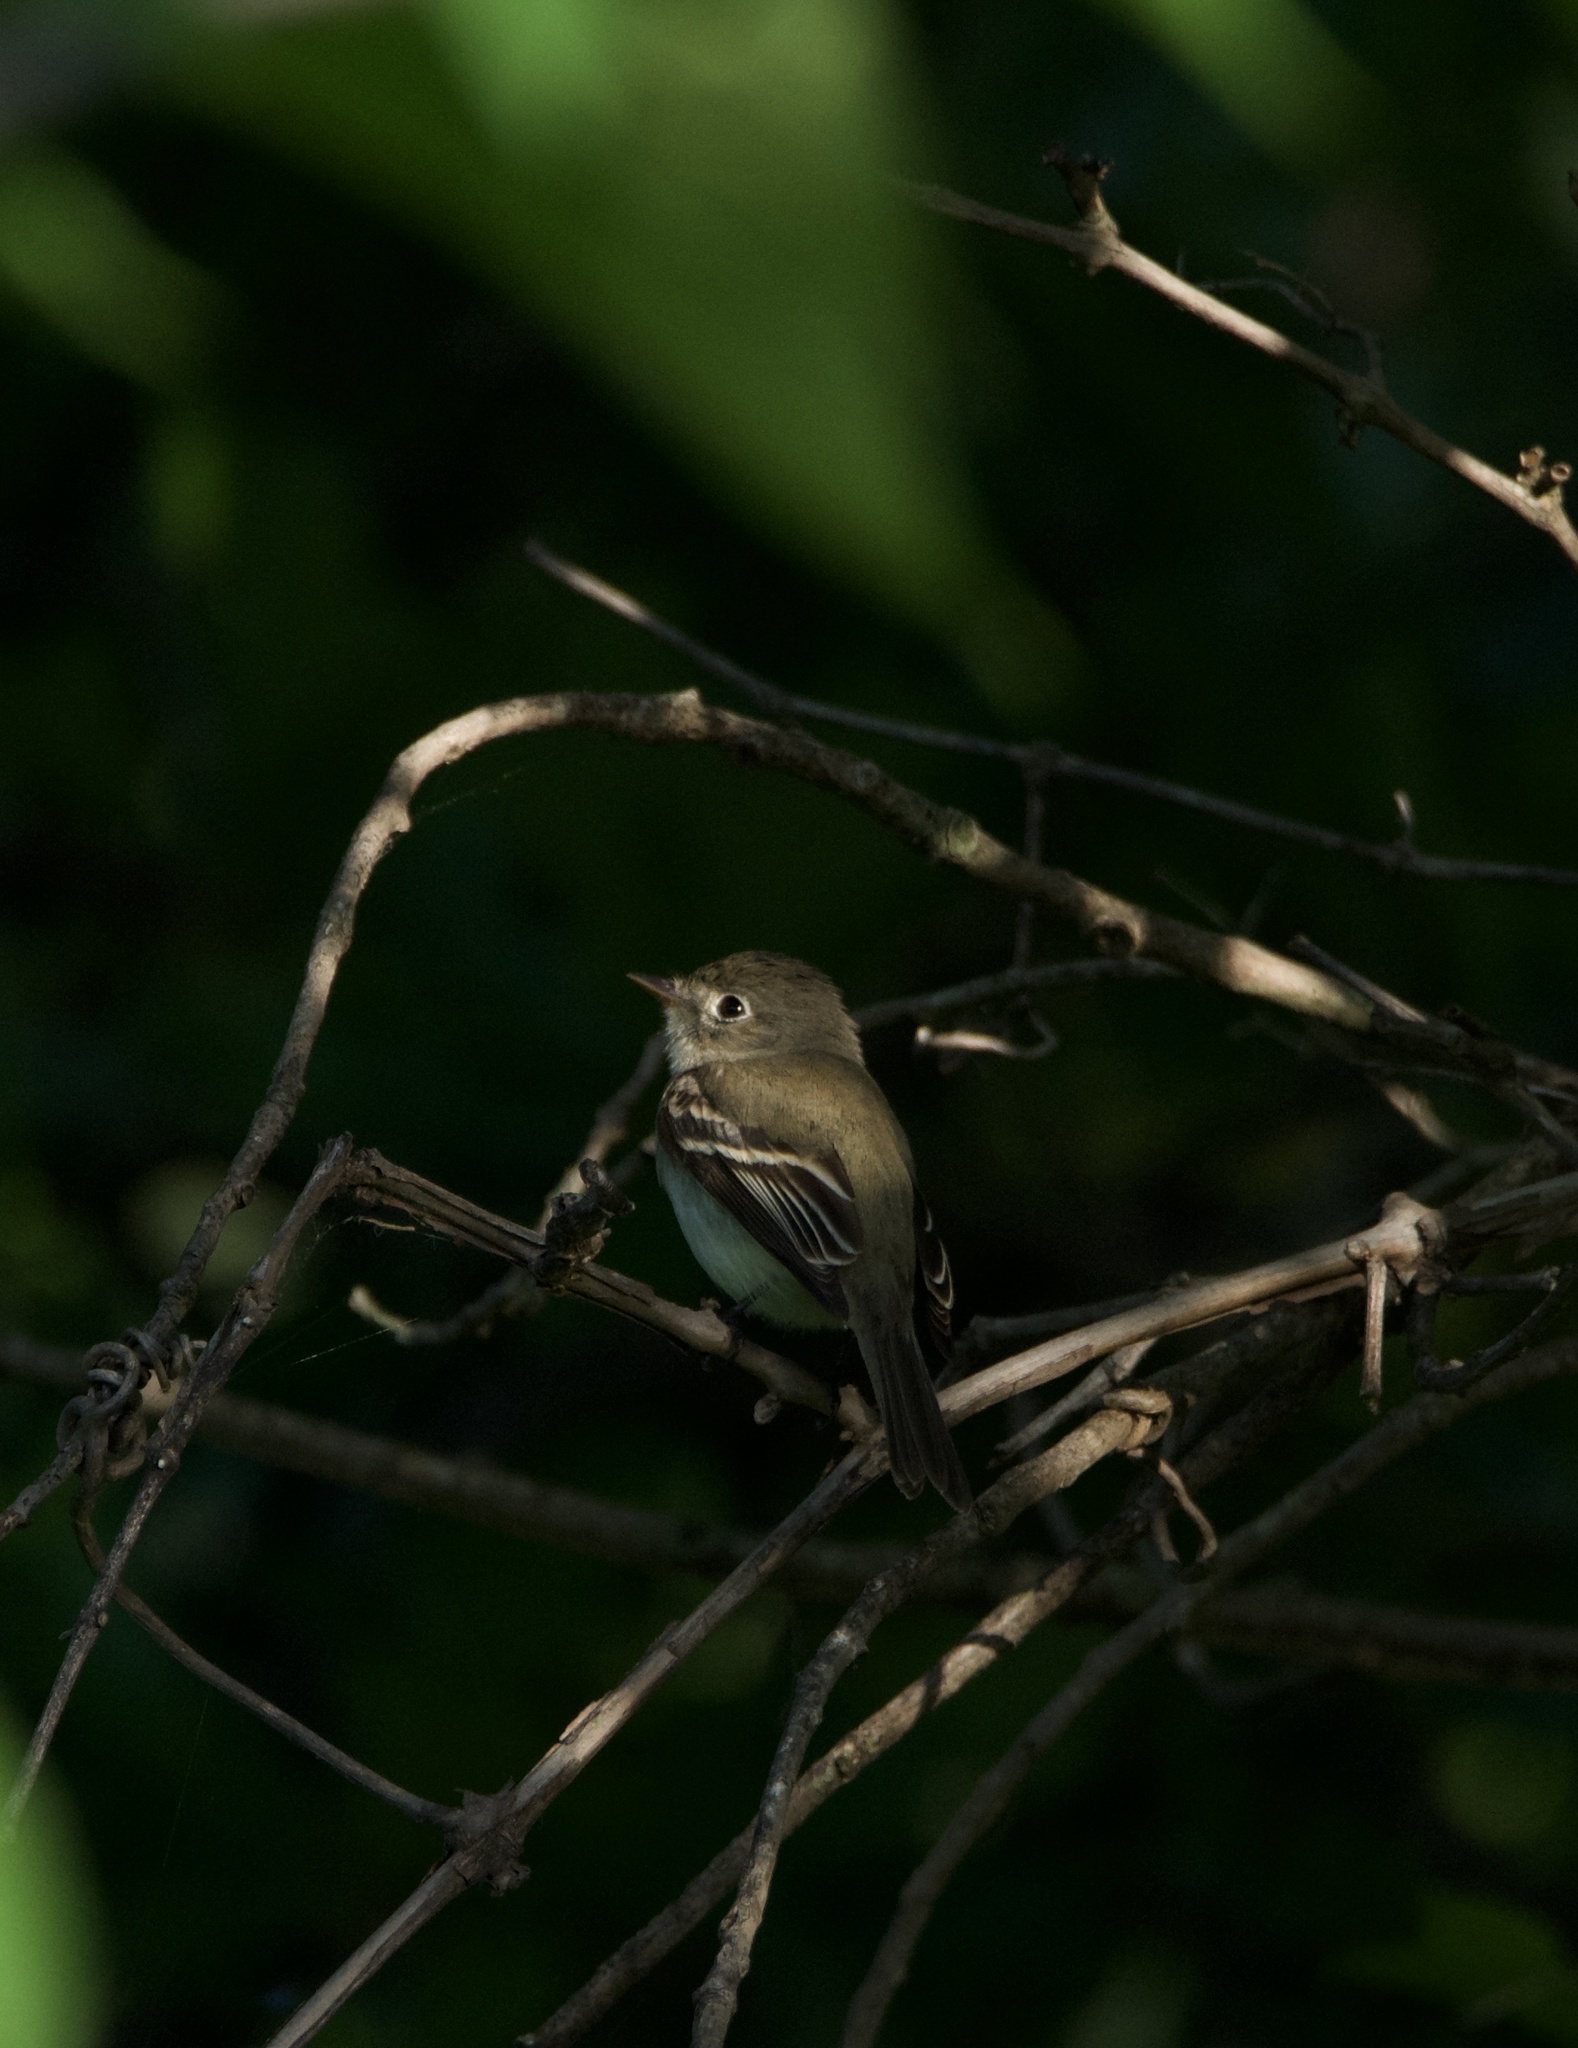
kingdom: Animalia
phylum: Chordata
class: Aves
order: Passeriformes
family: Tyrannidae
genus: Empidonax
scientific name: Empidonax minimus
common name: Least flycatcher
